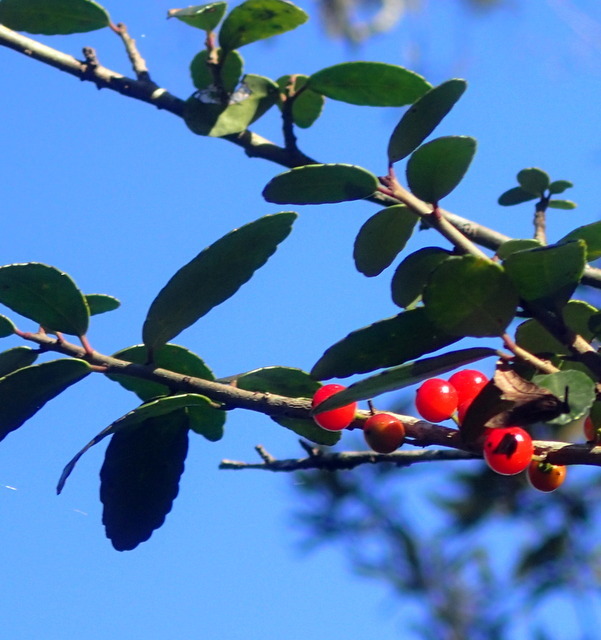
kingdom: Plantae
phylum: Tracheophyta
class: Magnoliopsida
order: Aquifoliales
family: Aquifoliaceae
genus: Ilex
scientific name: Ilex vomitoria
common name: Yaupon holly
